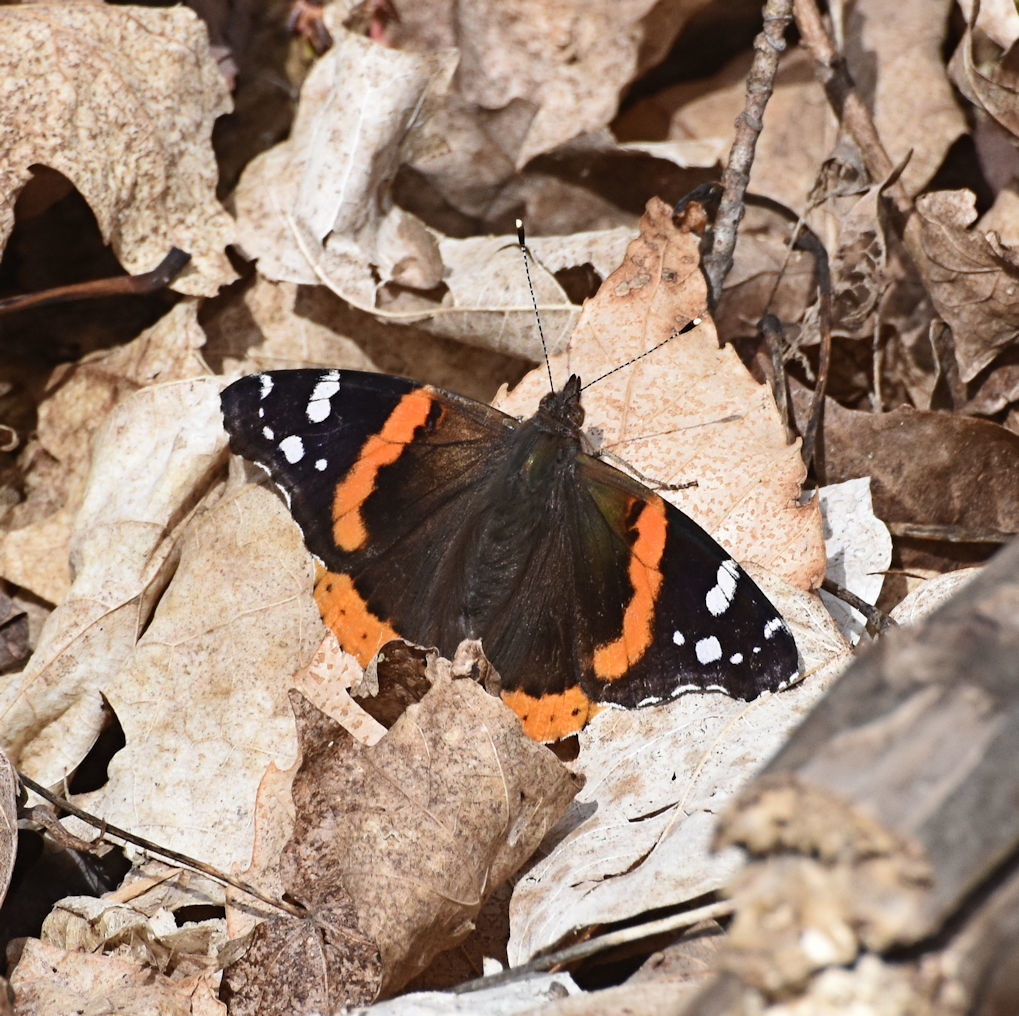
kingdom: Animalia
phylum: Arthropoda
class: Insecta
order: Lepidoptera
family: Nymphalidae
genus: Vanessa
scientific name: Vanessa atalanta
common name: Red admiral
